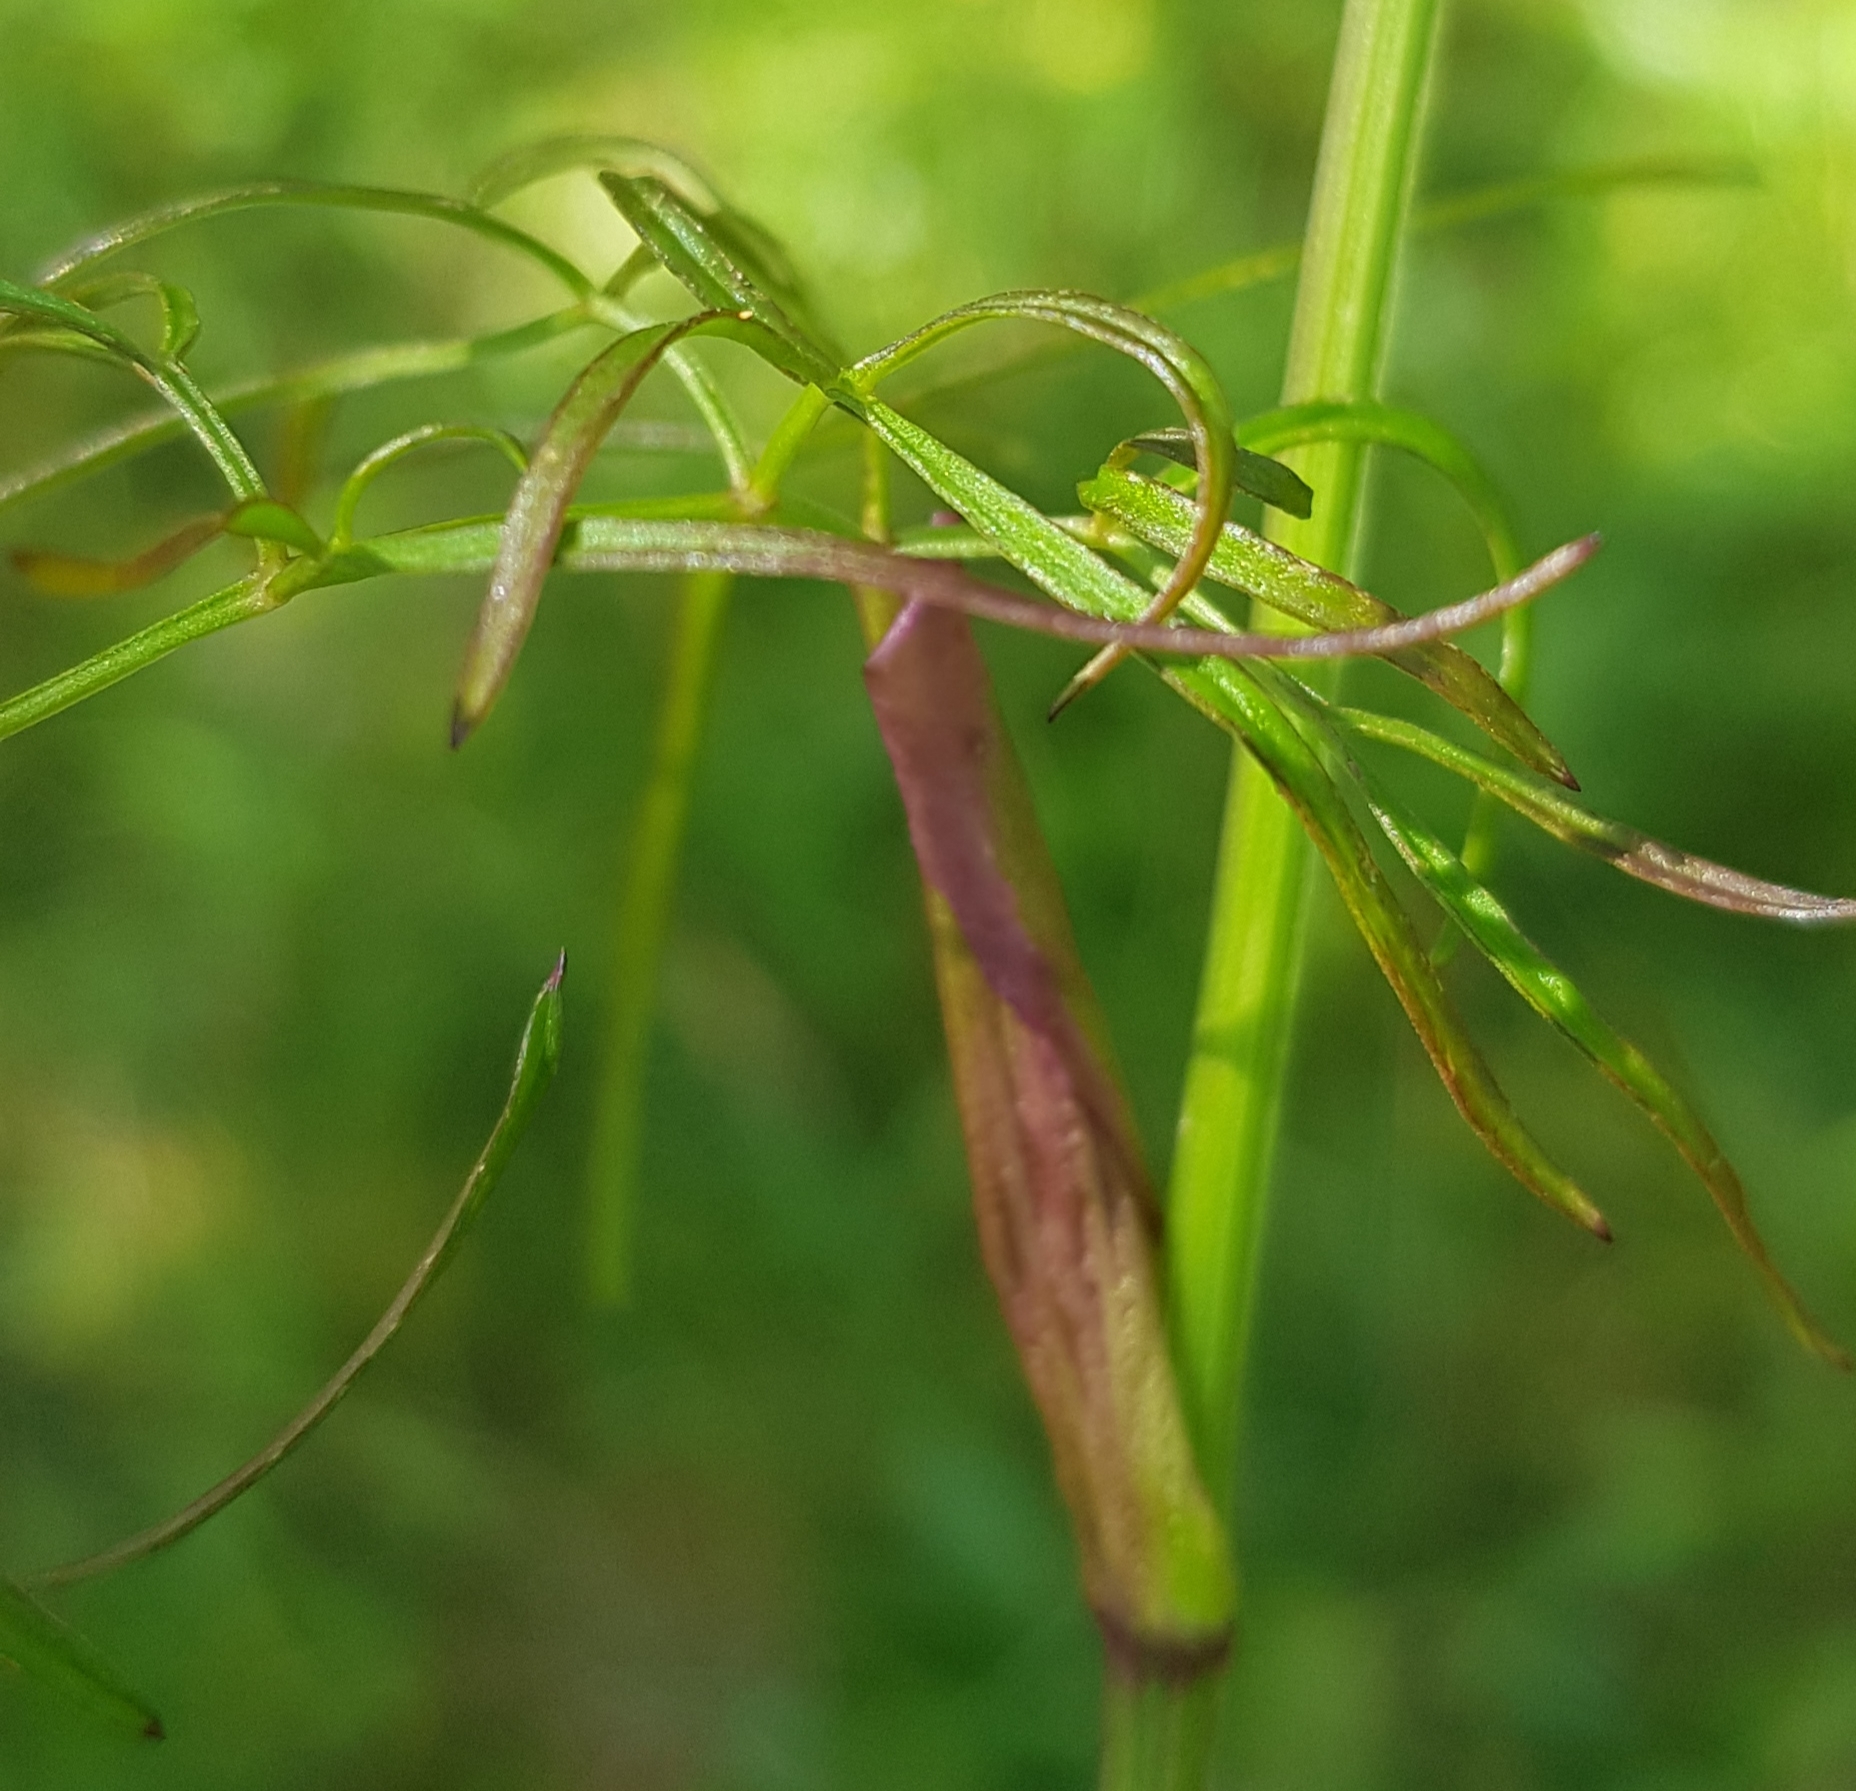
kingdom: Plantae
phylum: Tracheophyta
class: Magnoliopsida
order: Apiales
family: Apiaceae
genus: Ostericum
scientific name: Ostericum tenuifolium
